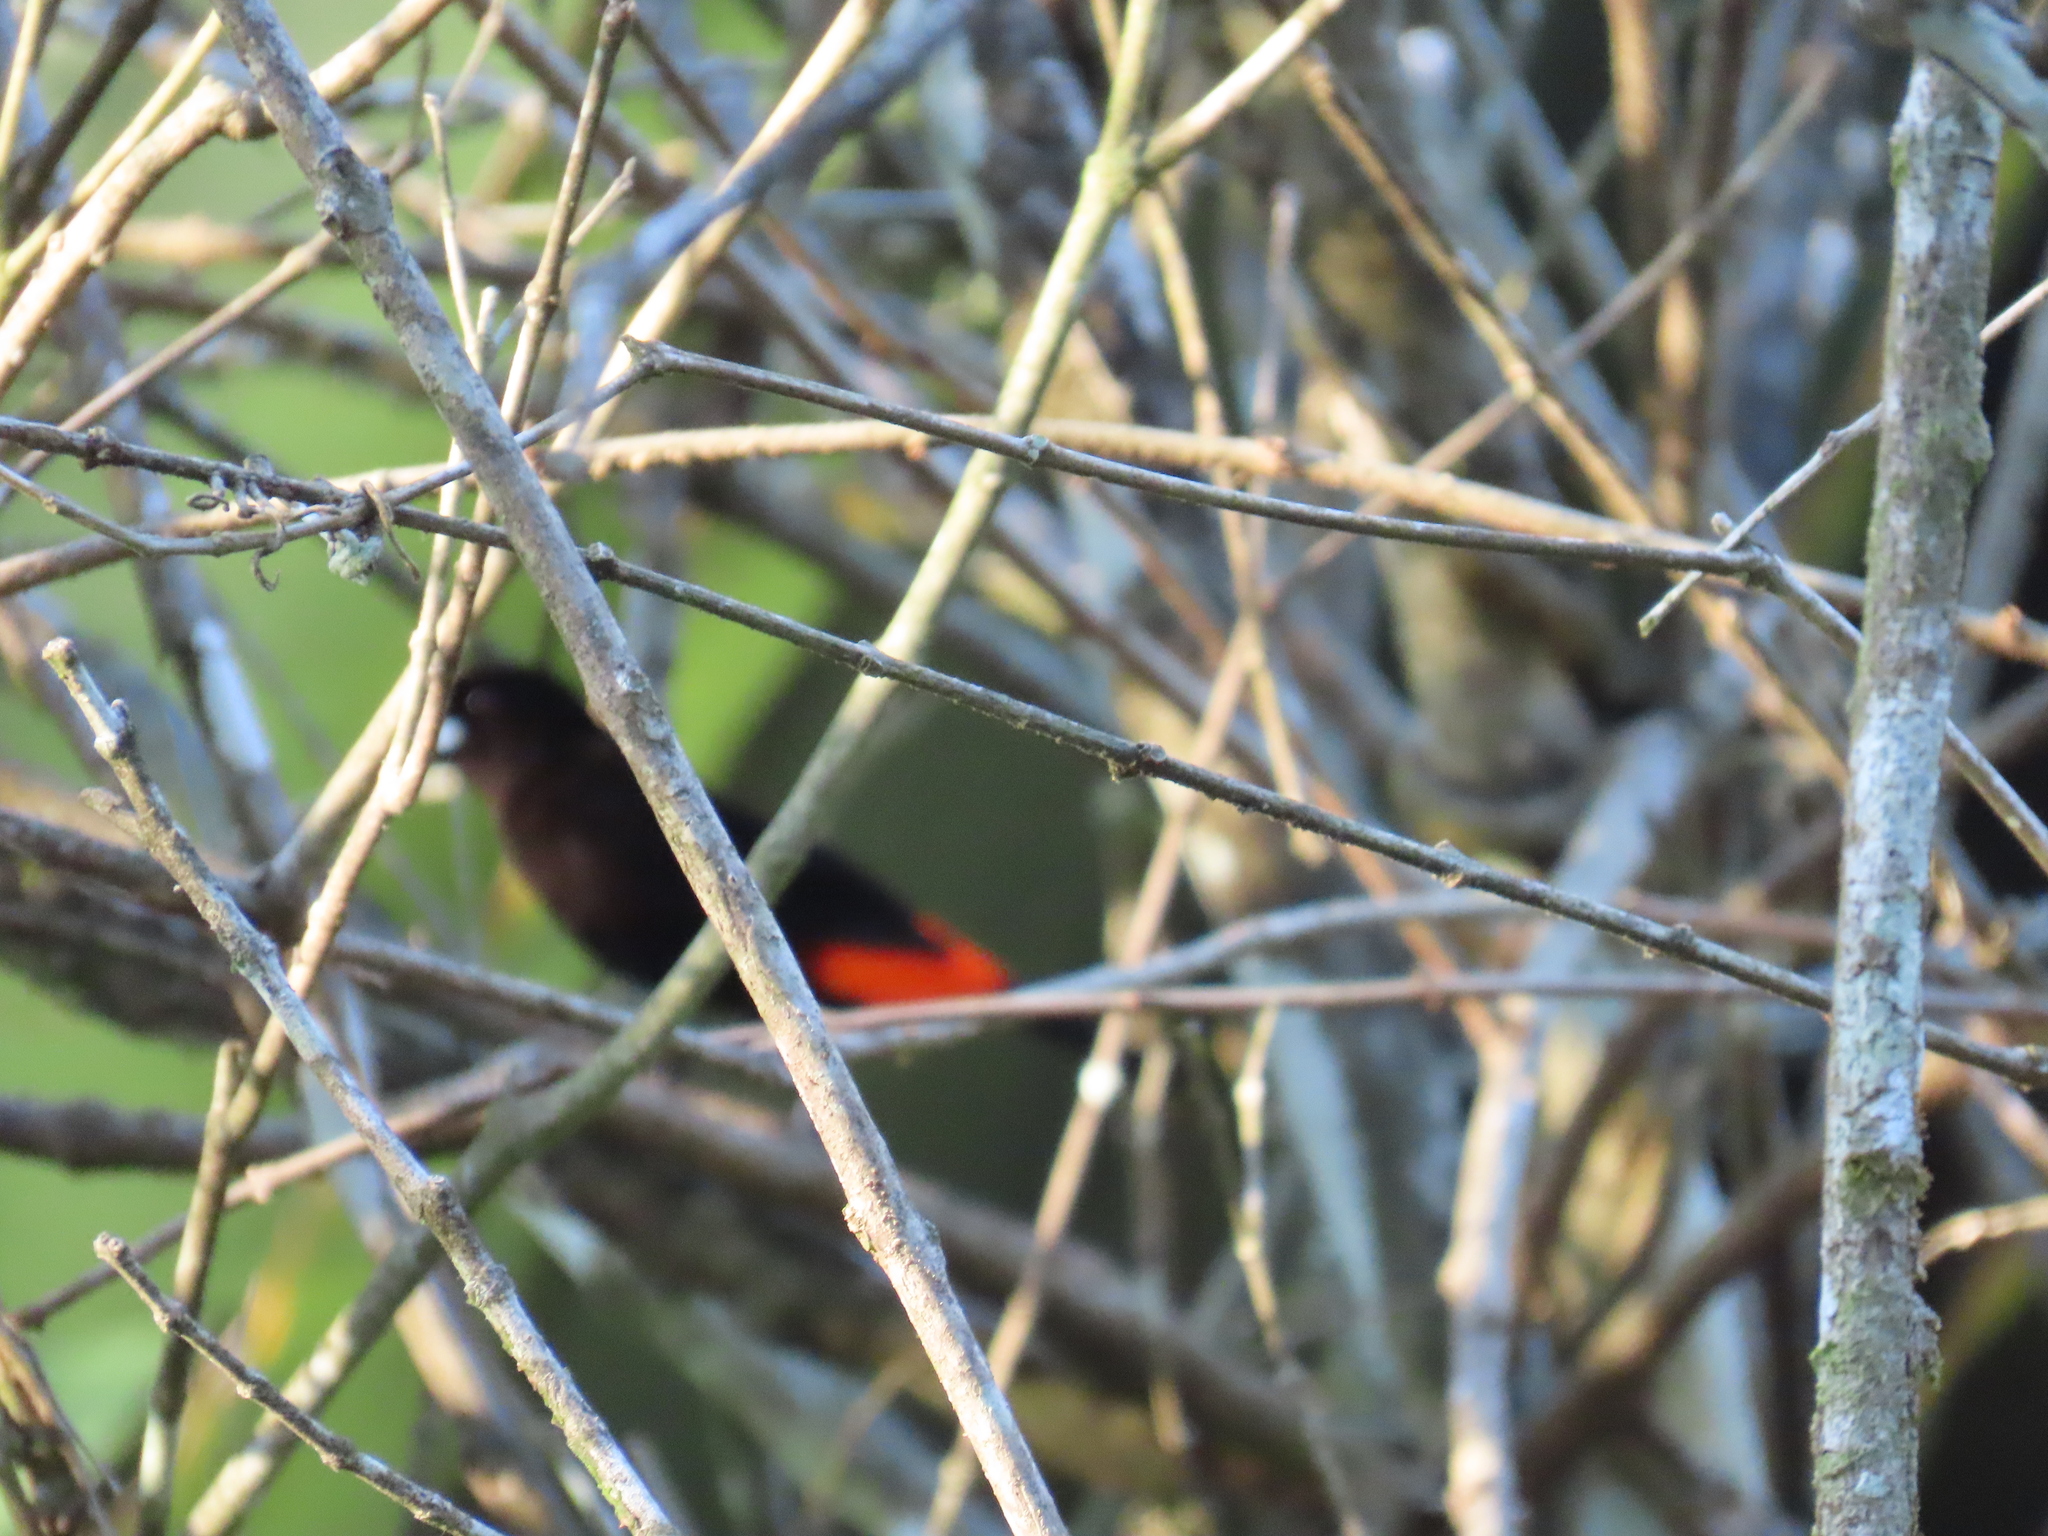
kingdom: Animalia
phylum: Chordata
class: Aves
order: Passeriformes
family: Thraupidae
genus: Ramphocelus
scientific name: Ramphocelus passerinii
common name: Passerini's tanager
